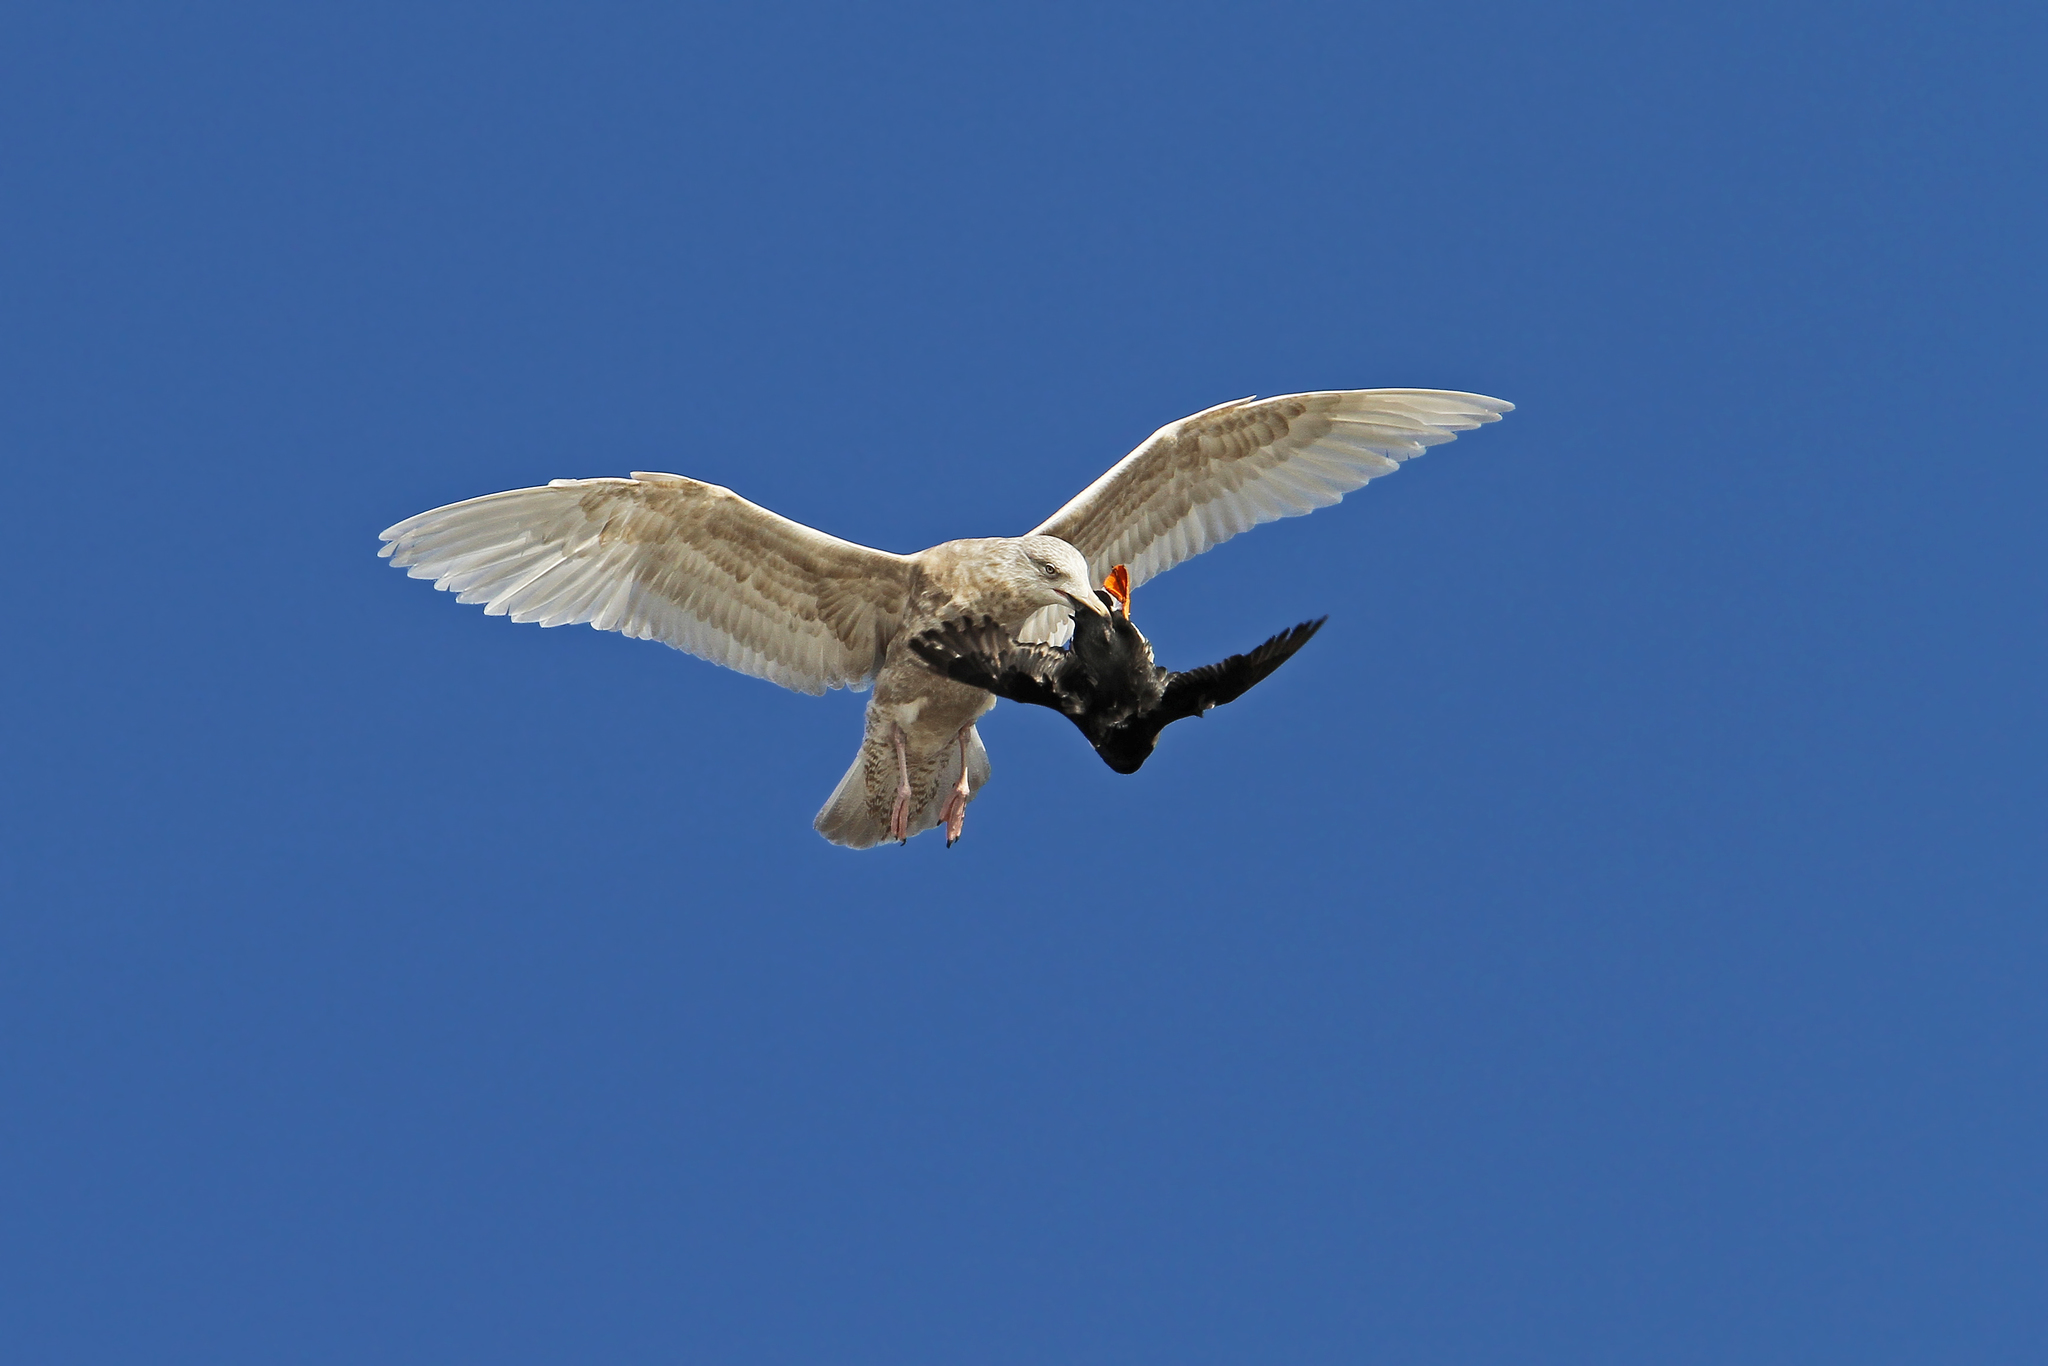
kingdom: Animalia
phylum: Chordata
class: Aves
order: Charadriiformes
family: Laridae
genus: Larus
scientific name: Larus hyperboreus
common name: Glaucous gull
